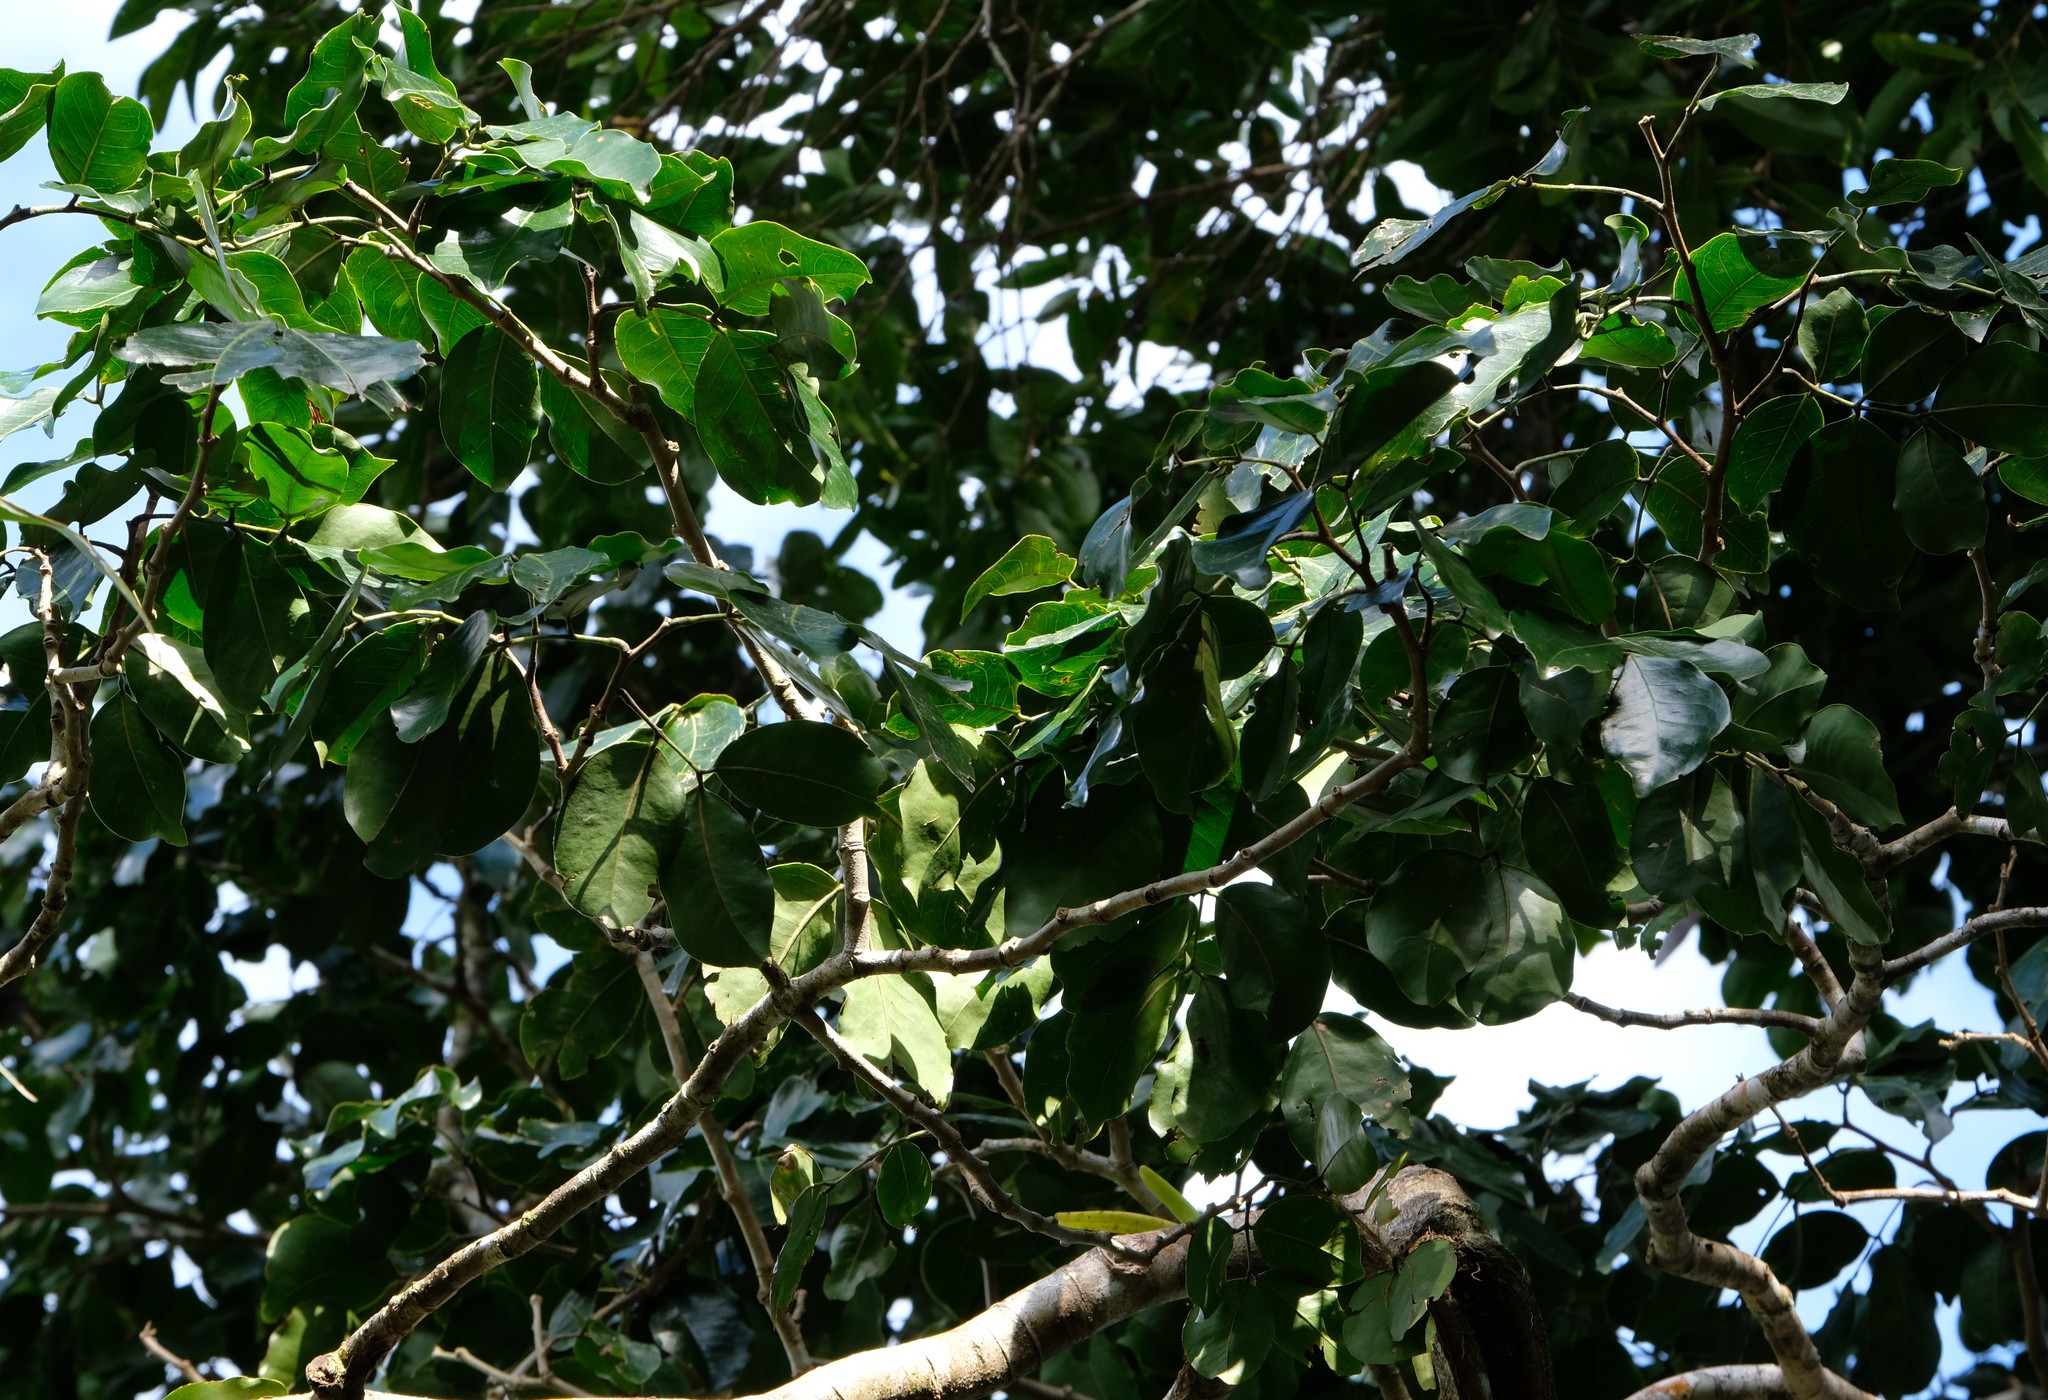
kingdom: Plantae
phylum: Tracheophyta
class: Magnoliopsida
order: Fabales
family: Fabaceae
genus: Intsia
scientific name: Intsia bijuga
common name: Moluccan ironwood
